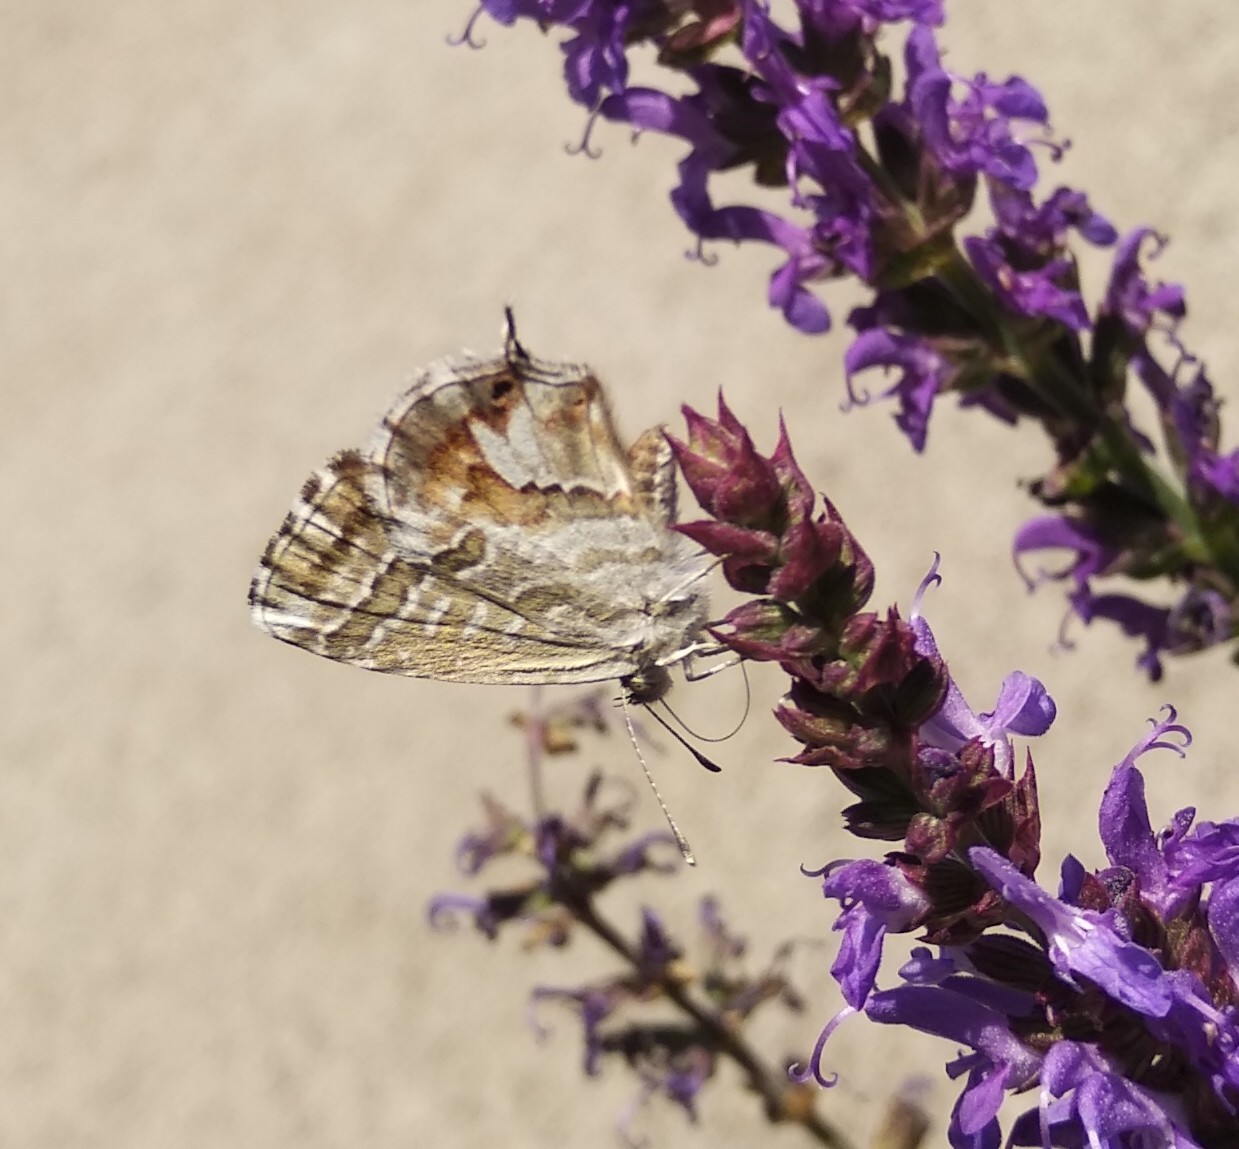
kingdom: Animalia
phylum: Arthropoda
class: Insecta
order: Lepidoptera
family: Lycaenidae
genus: Cacyreus
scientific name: Cacyreus marshalli
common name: Geranium bronze
